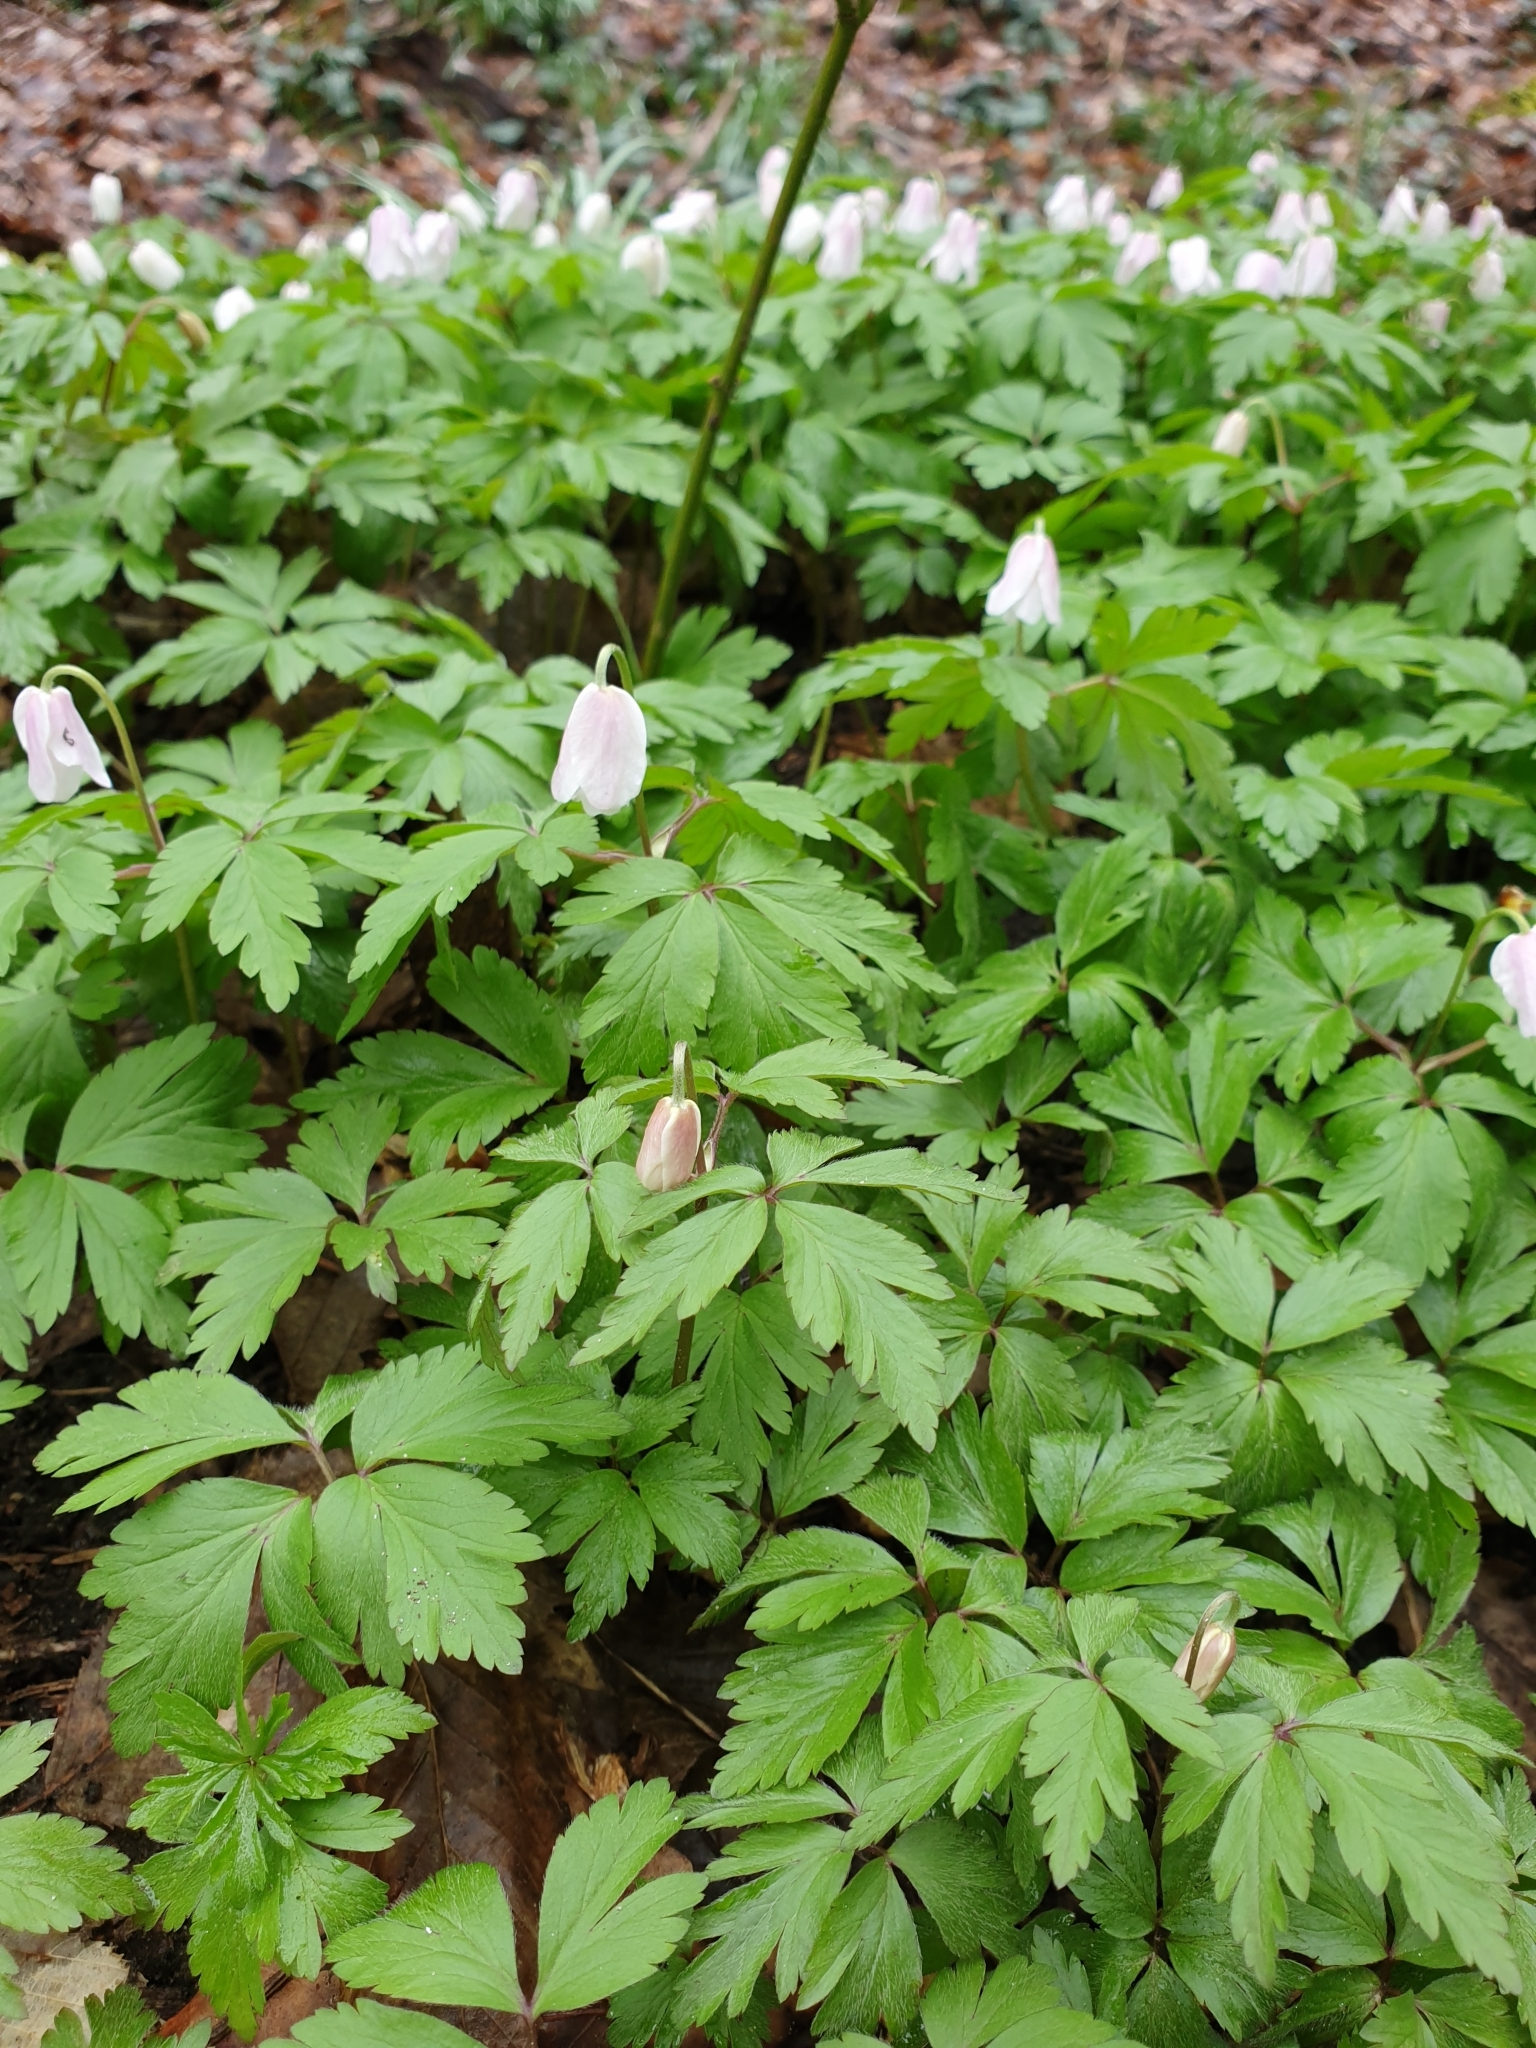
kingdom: Plantae
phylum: Tracheophyta
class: Magnoliopsida
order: Ranunculales
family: Ranunculaceae
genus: Anemone
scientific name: Anemone nemorosa
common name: Wood anemone
